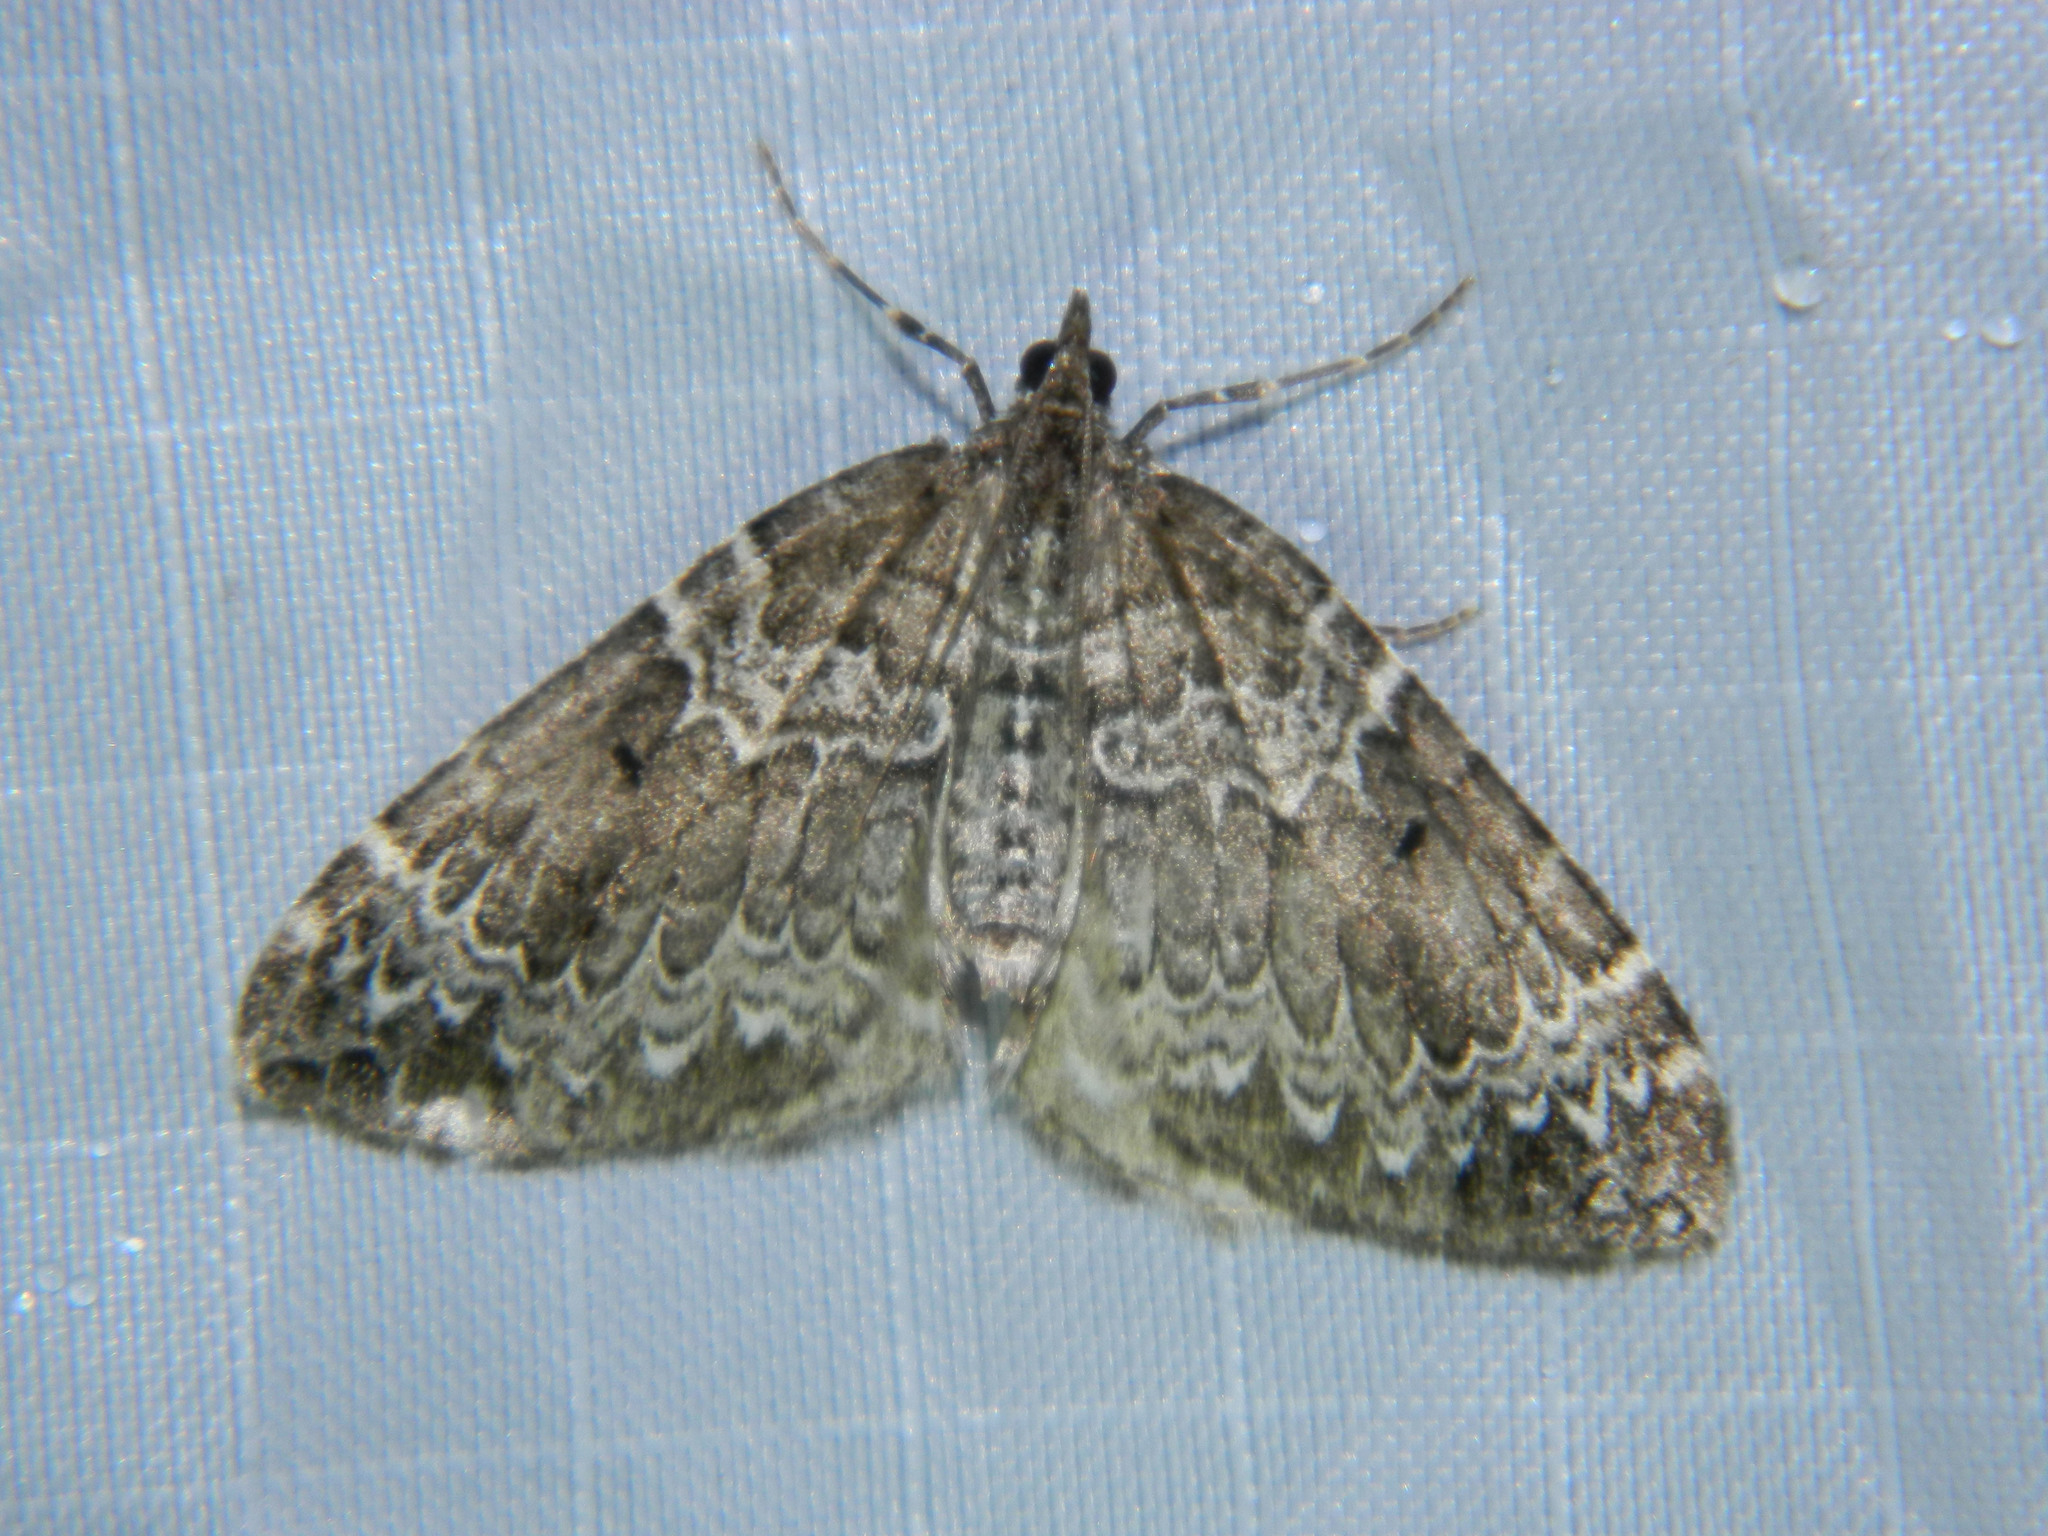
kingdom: Animalia
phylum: Arthropoda
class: Insecta
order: Lepidoptera
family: Geometridae
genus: Eulithis
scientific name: Eulithis explanata
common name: White eulithis
